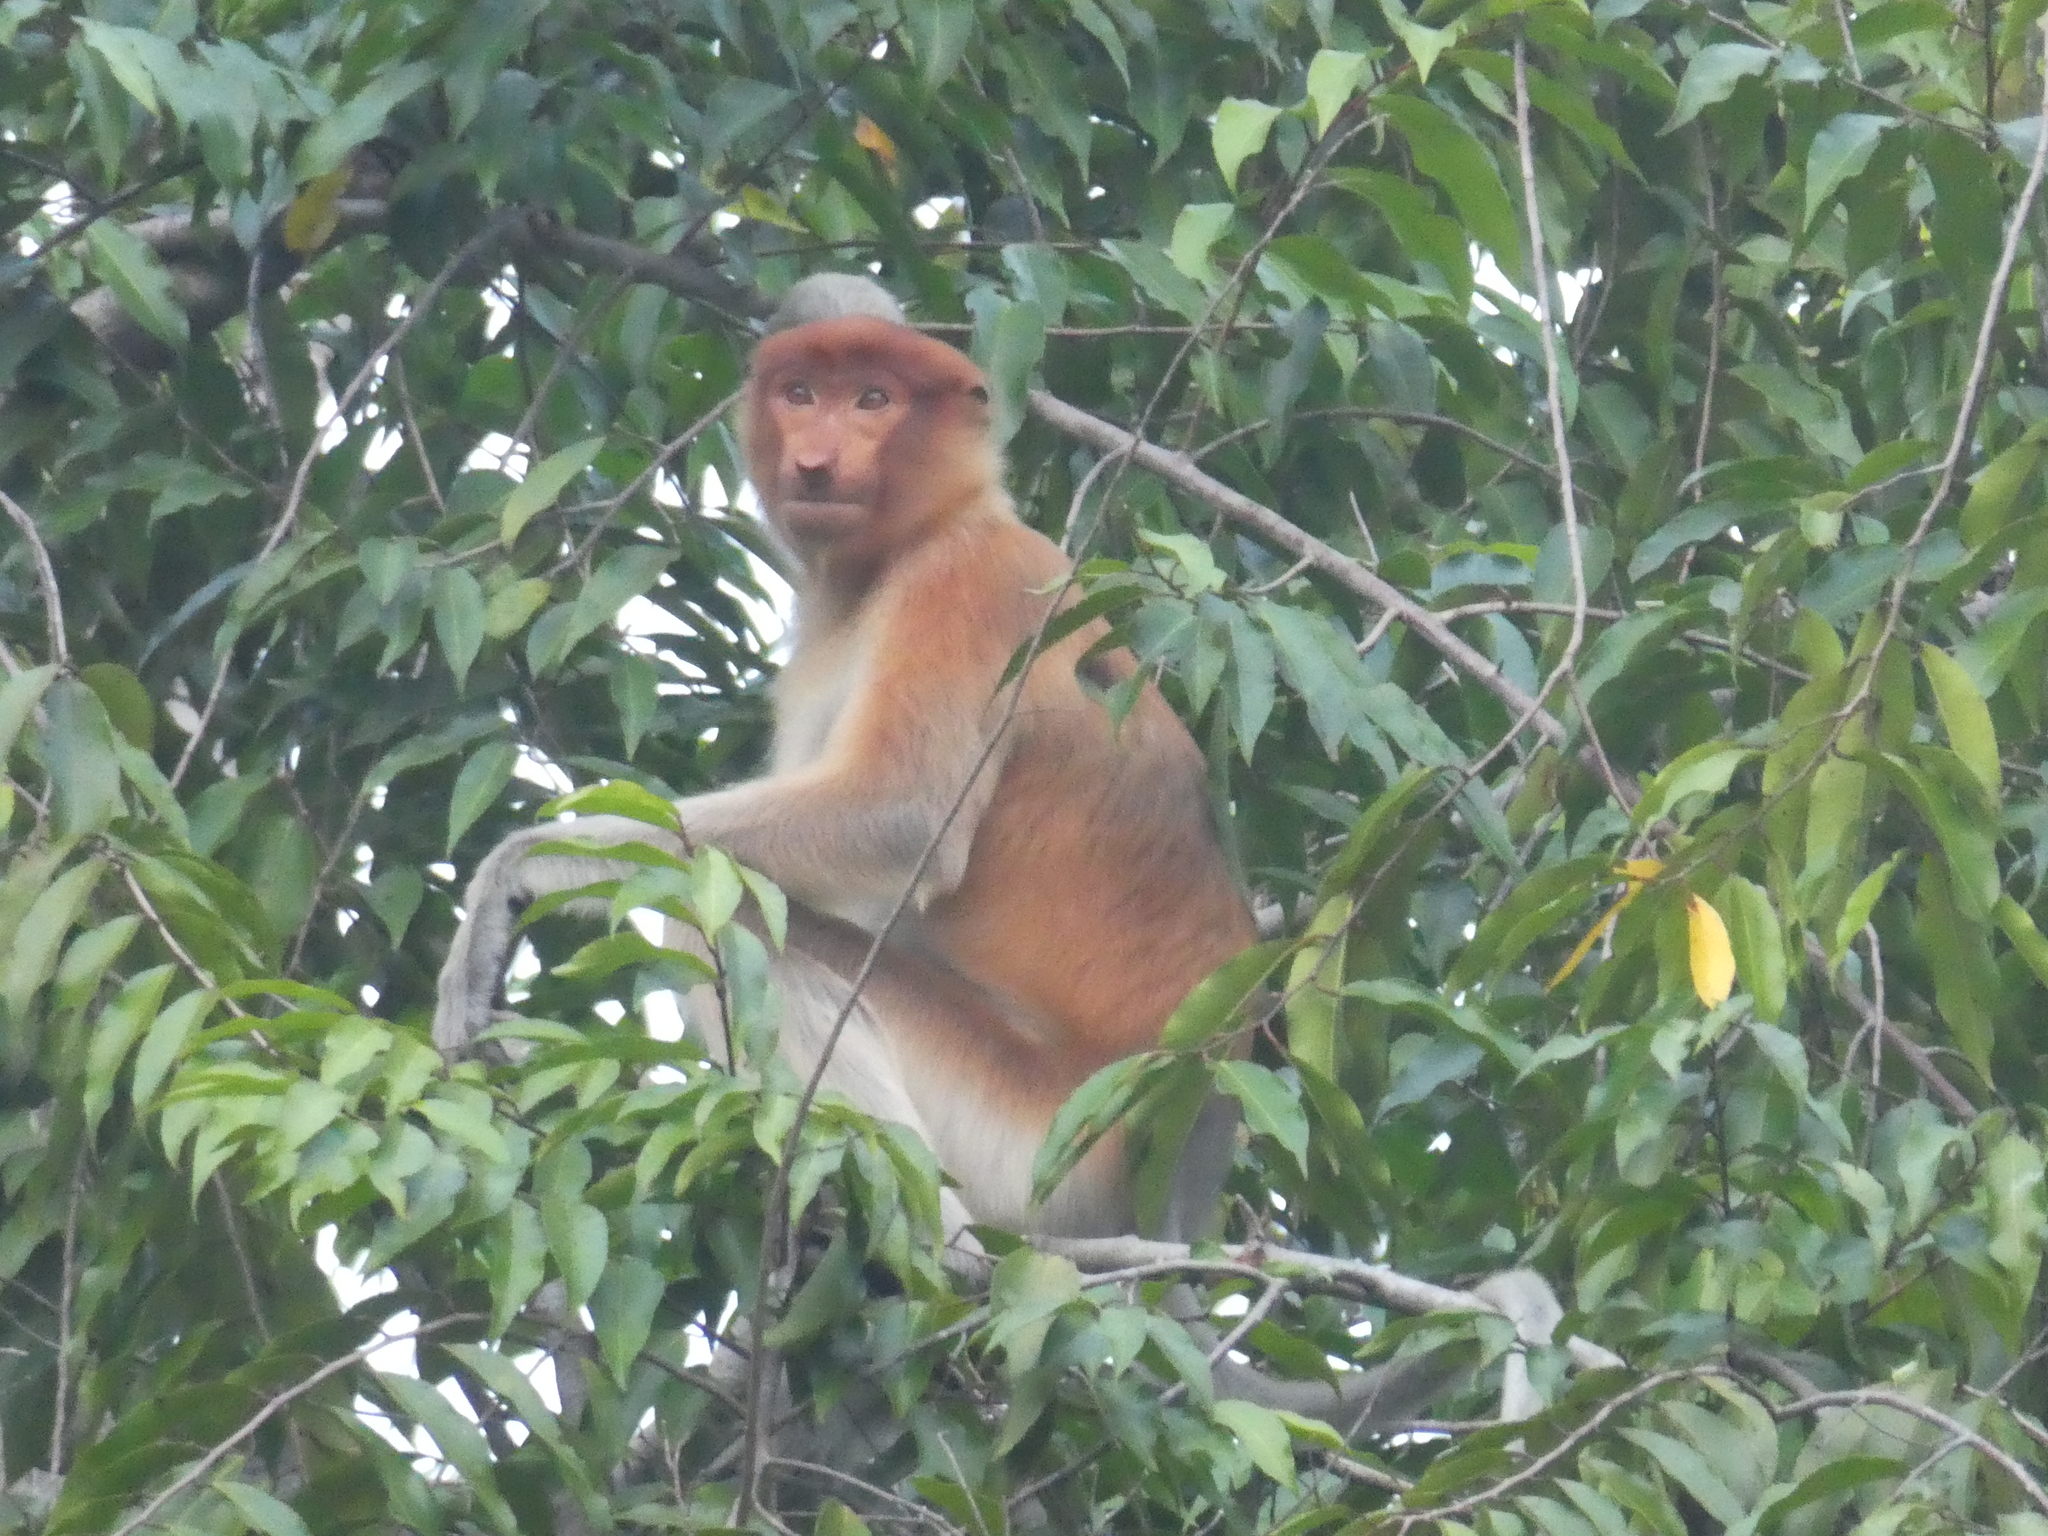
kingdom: Animalia
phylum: Chordata
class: Mammalia
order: Primates
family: Cercopithecidae
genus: Nasalis
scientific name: Nasalis larvatus
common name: Proboscis monkey
